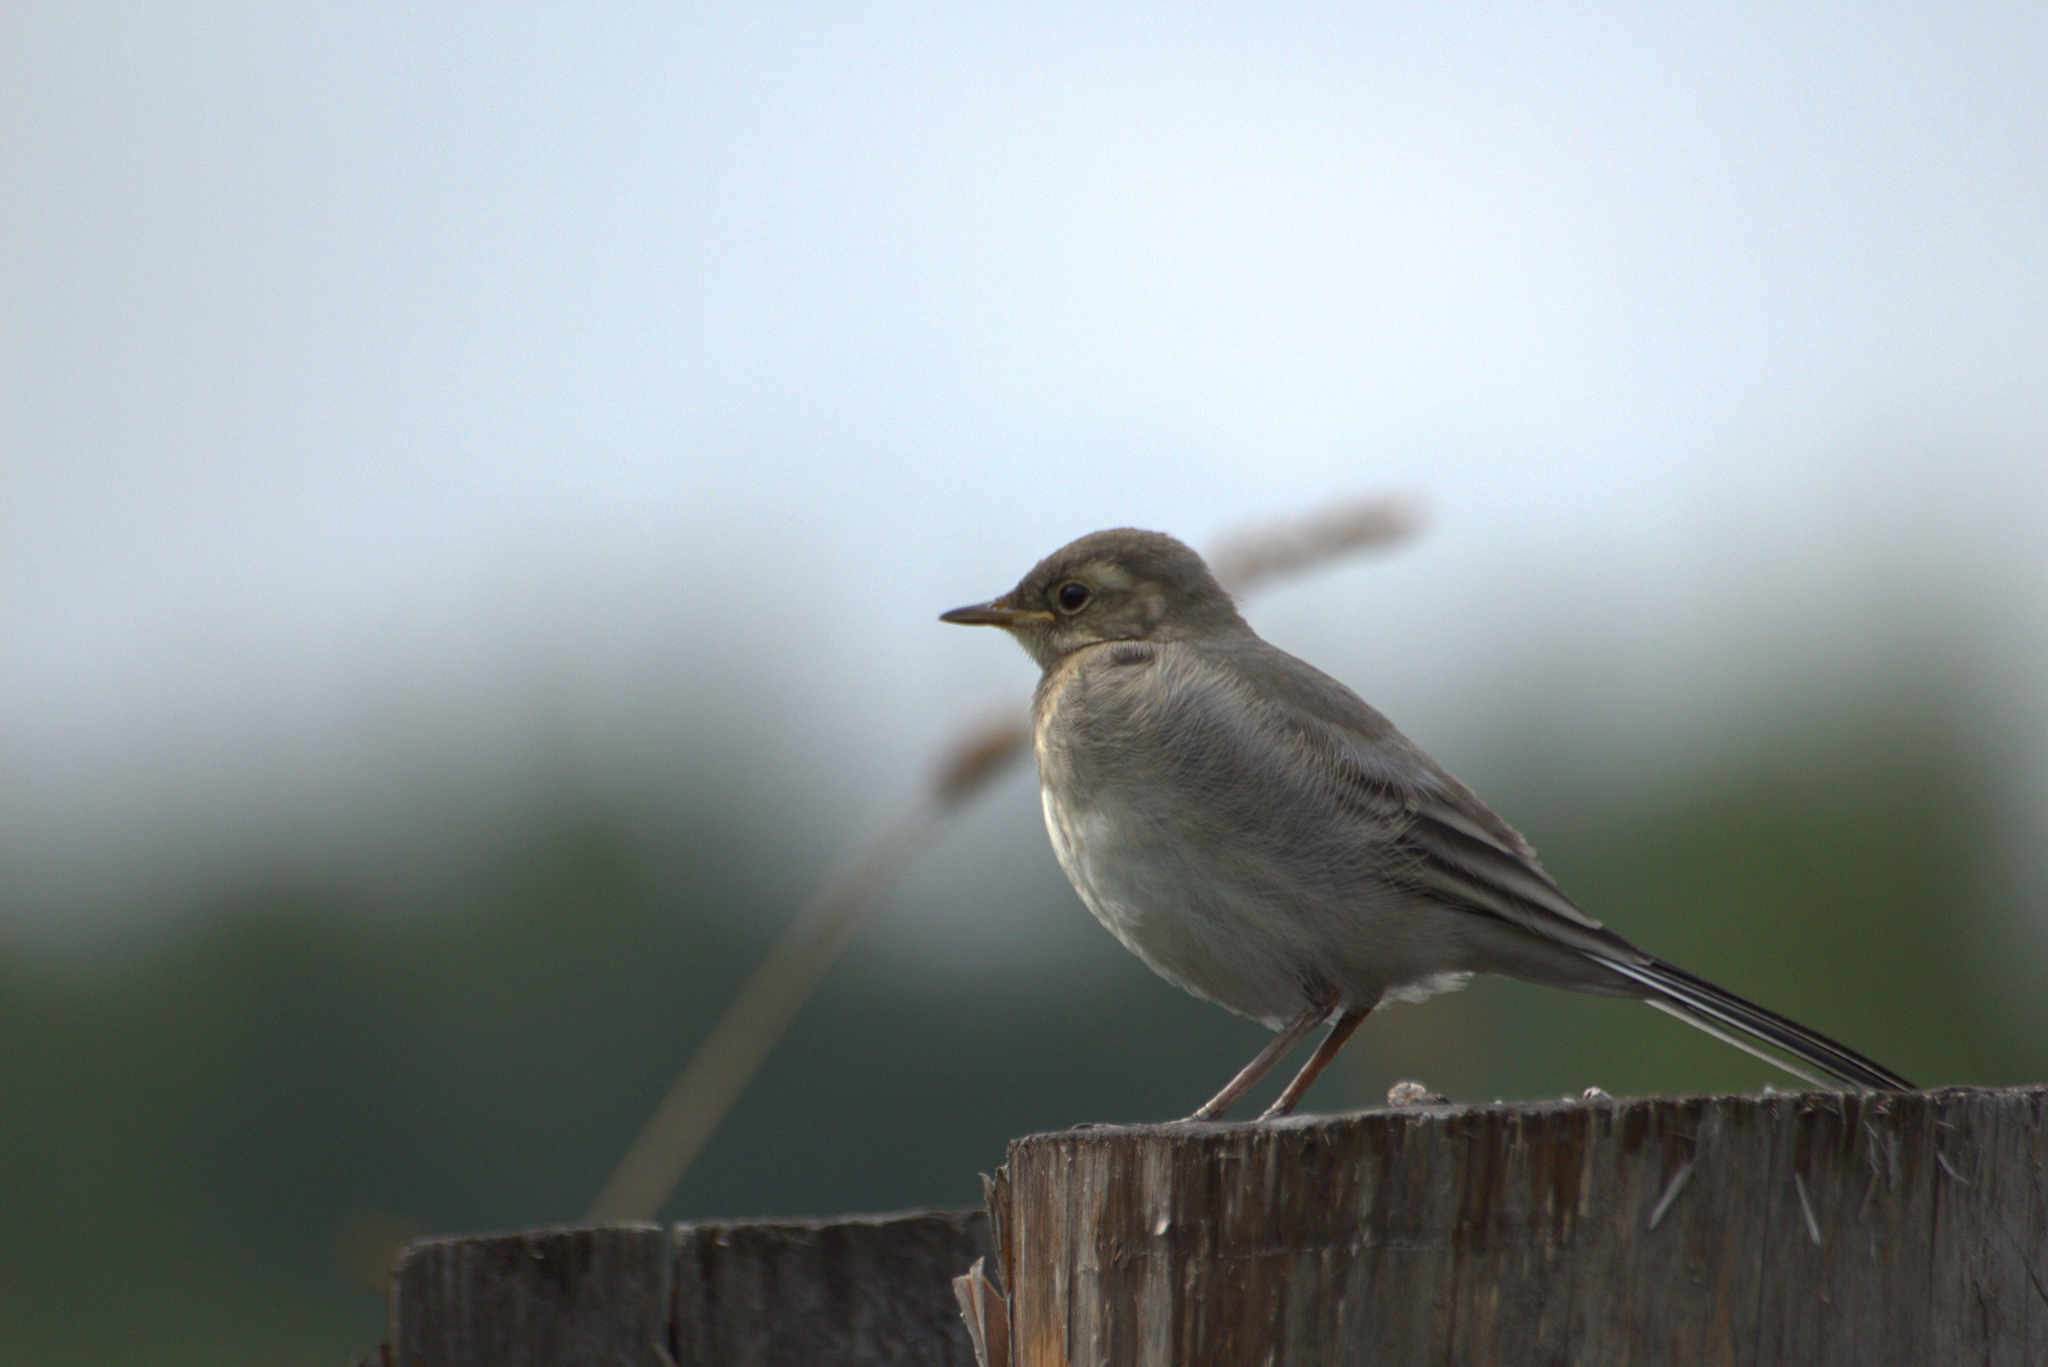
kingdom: Animalia
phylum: Chordata
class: Aves
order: Passeriformes
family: Motacillidae
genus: Motacilla
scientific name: Motacilla alba
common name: White wagtail
